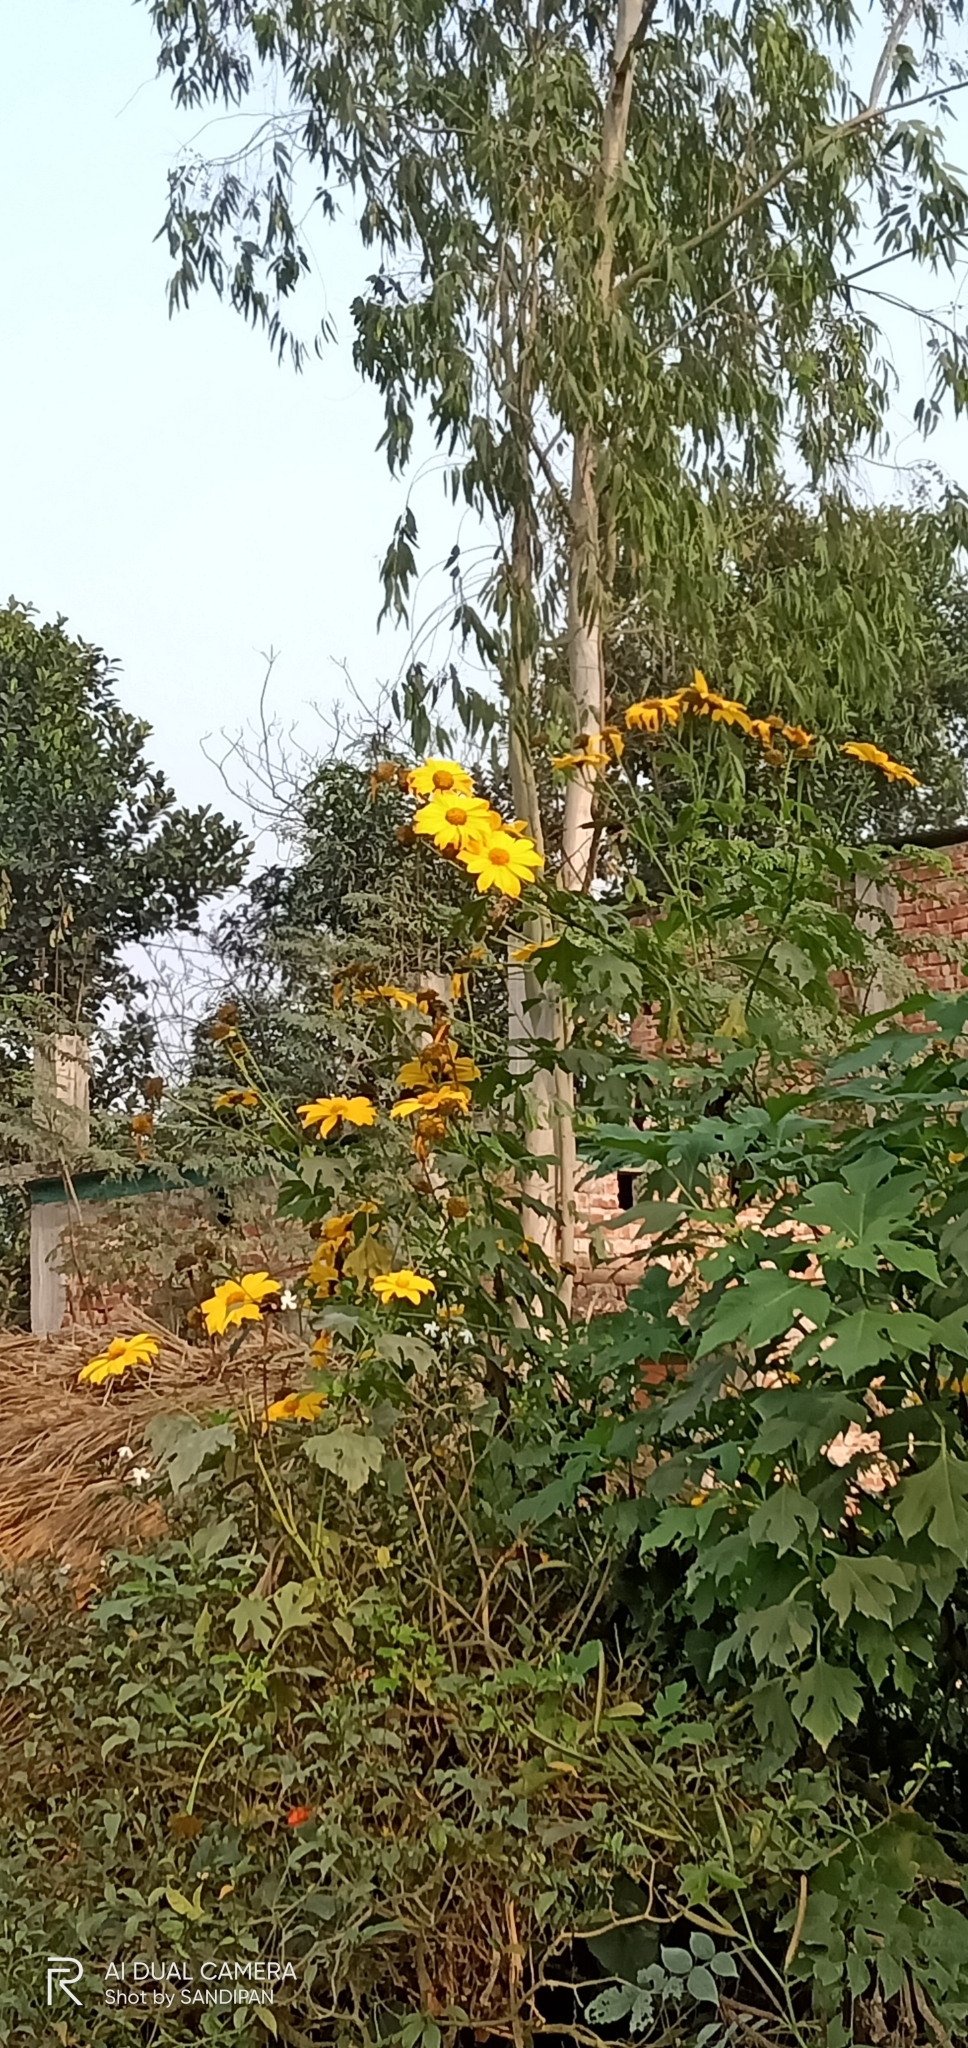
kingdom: Plantae
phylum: Tracheophyta
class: Magnoliopsida
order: Asterales
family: Asteraceae
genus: Tithonia
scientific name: Tithonia diversifolia
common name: Tree marigold
